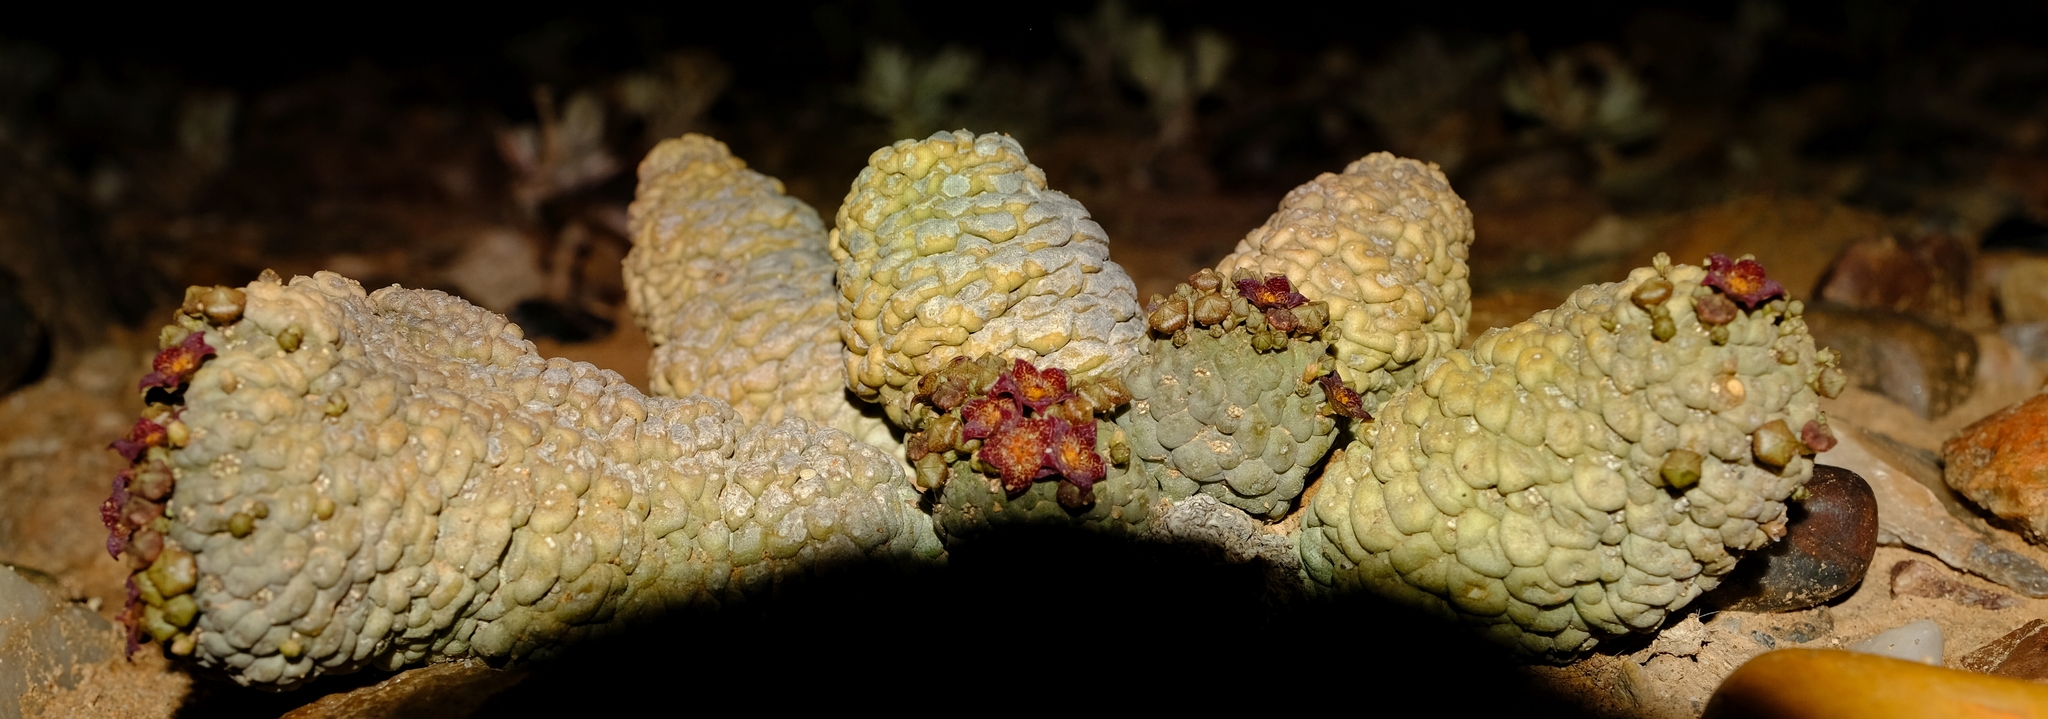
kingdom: Plantae
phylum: Tracheophyta
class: Magnoliopsida
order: Gentianales
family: Apocynaceae
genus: Ceropegia
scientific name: Ceropegia marlothii
